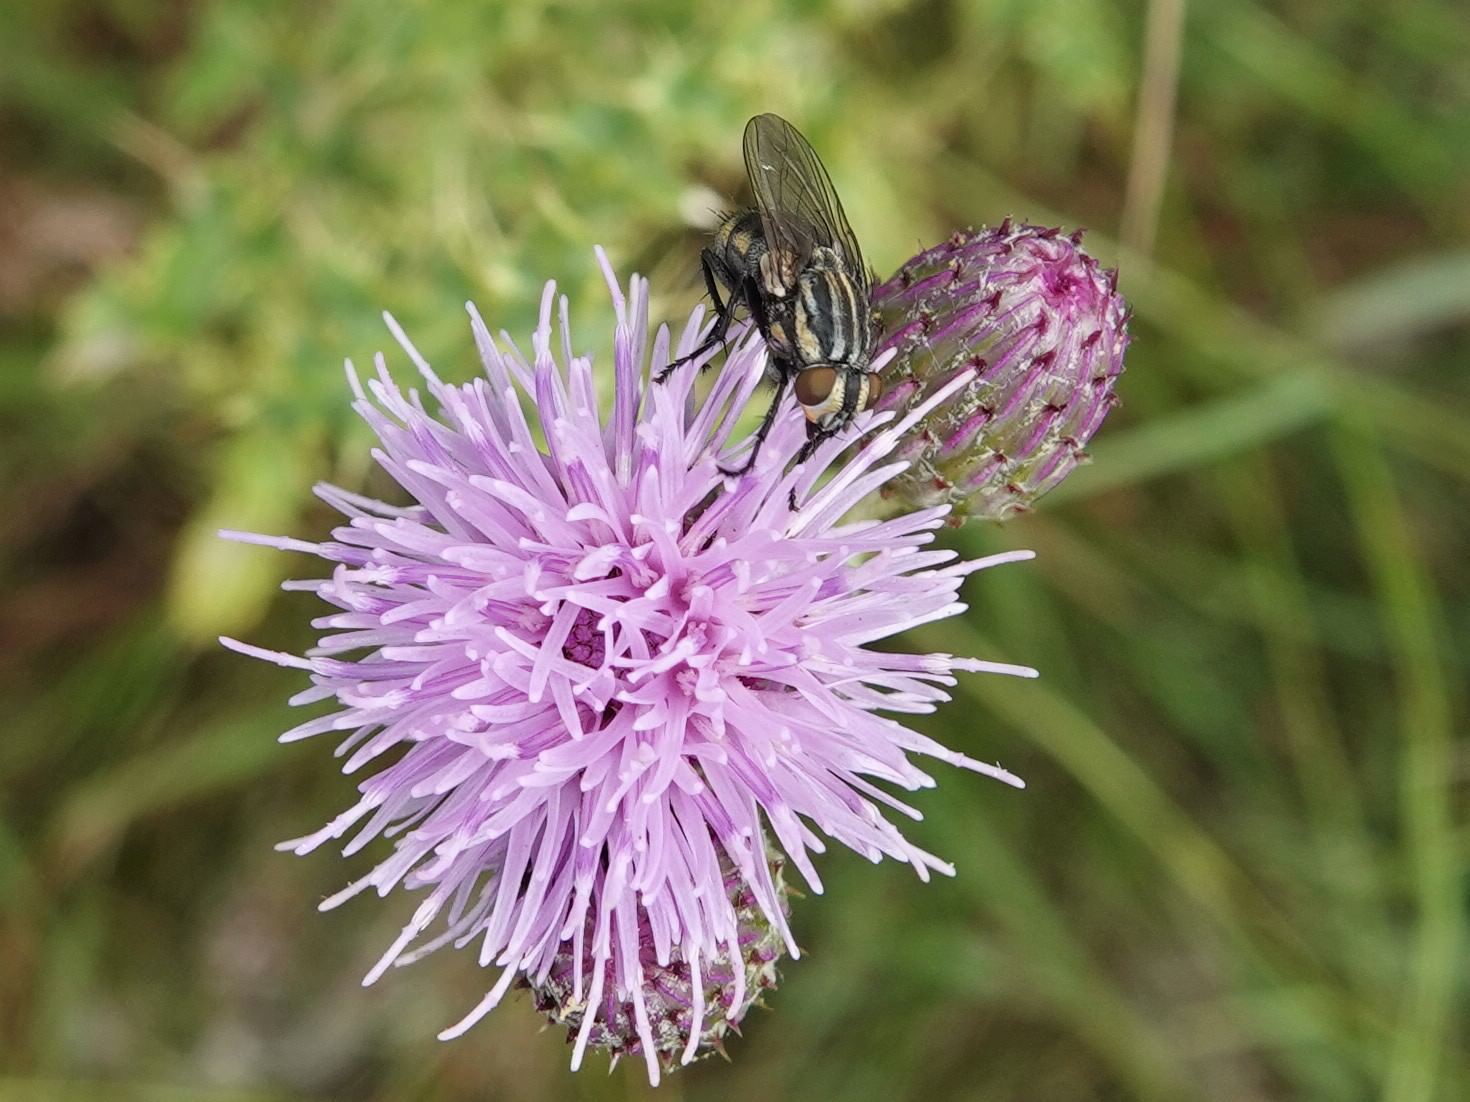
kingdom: Animalia
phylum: Arthropoda
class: Insecta
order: Diptera
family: Sarcophagidae
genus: Oxysarcodexia
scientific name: Oxysarcodexia varia
